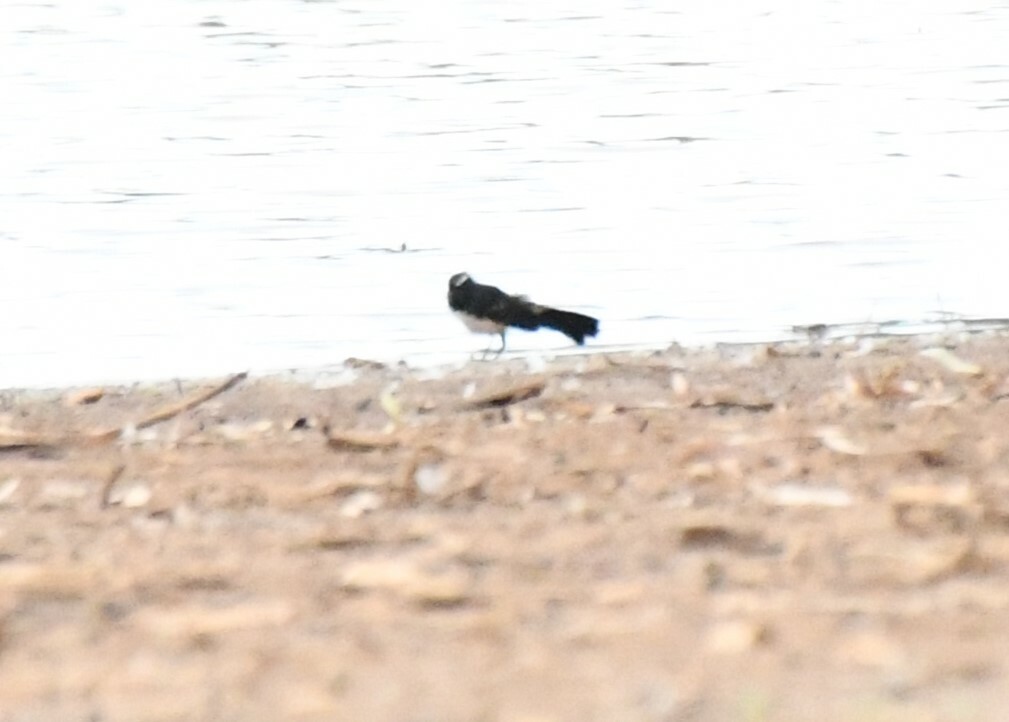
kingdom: Animalia
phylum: Chordata
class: Aves
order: Passeriformes
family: Rhipiduridae
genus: Rhipidura
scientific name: Rhipidura leucophrys
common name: Willie wagtail
